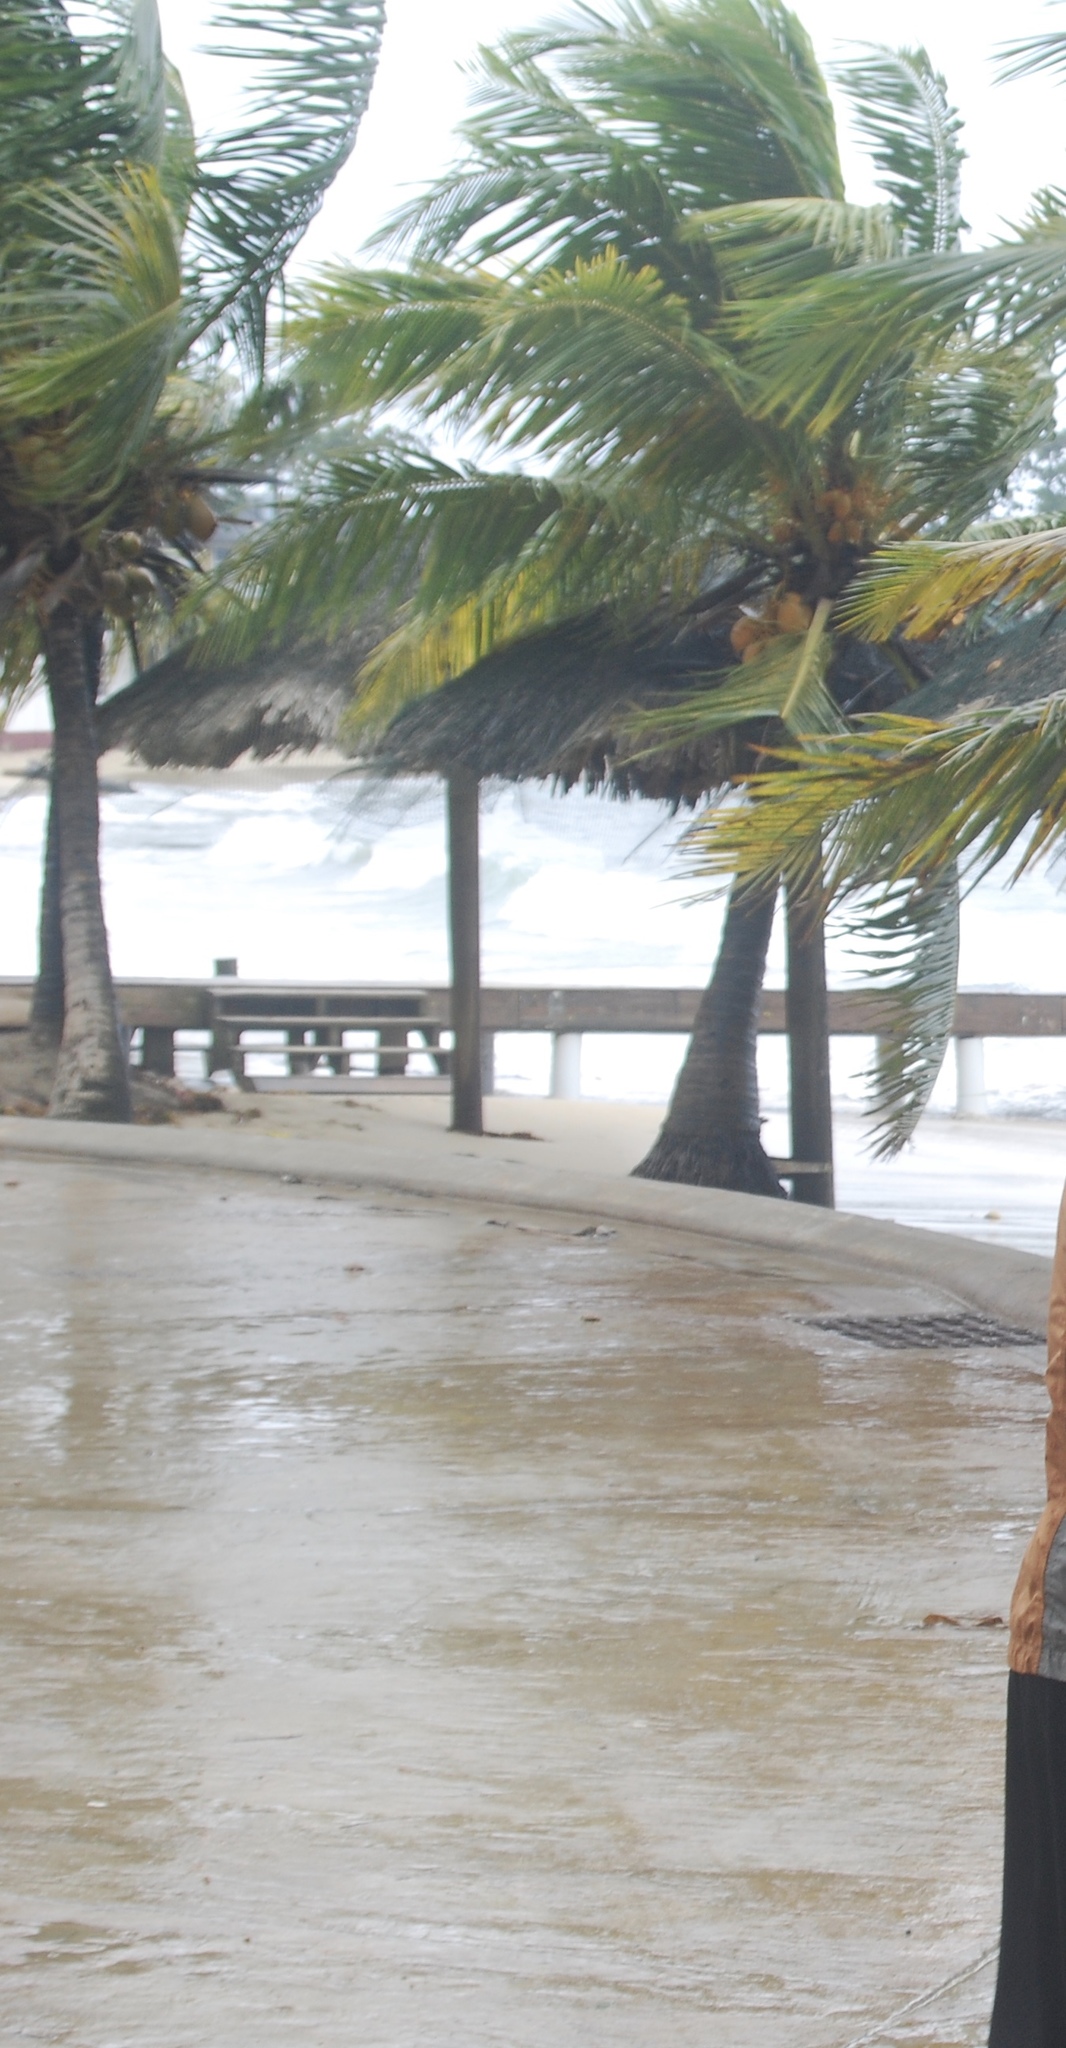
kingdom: Plantae
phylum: Tracheophyta
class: Liliopsida
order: Arecales
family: Arecaceae
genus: Cocos
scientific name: Cocos nucifera
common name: Coconut palm
